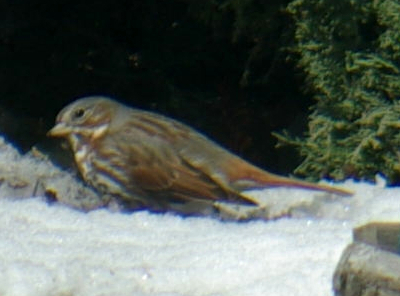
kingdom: Animalia
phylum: Chordata
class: Aves
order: Passeriformes
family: Passerellidae
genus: Passerella
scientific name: Passerella iliaca
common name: Fox sparrow
